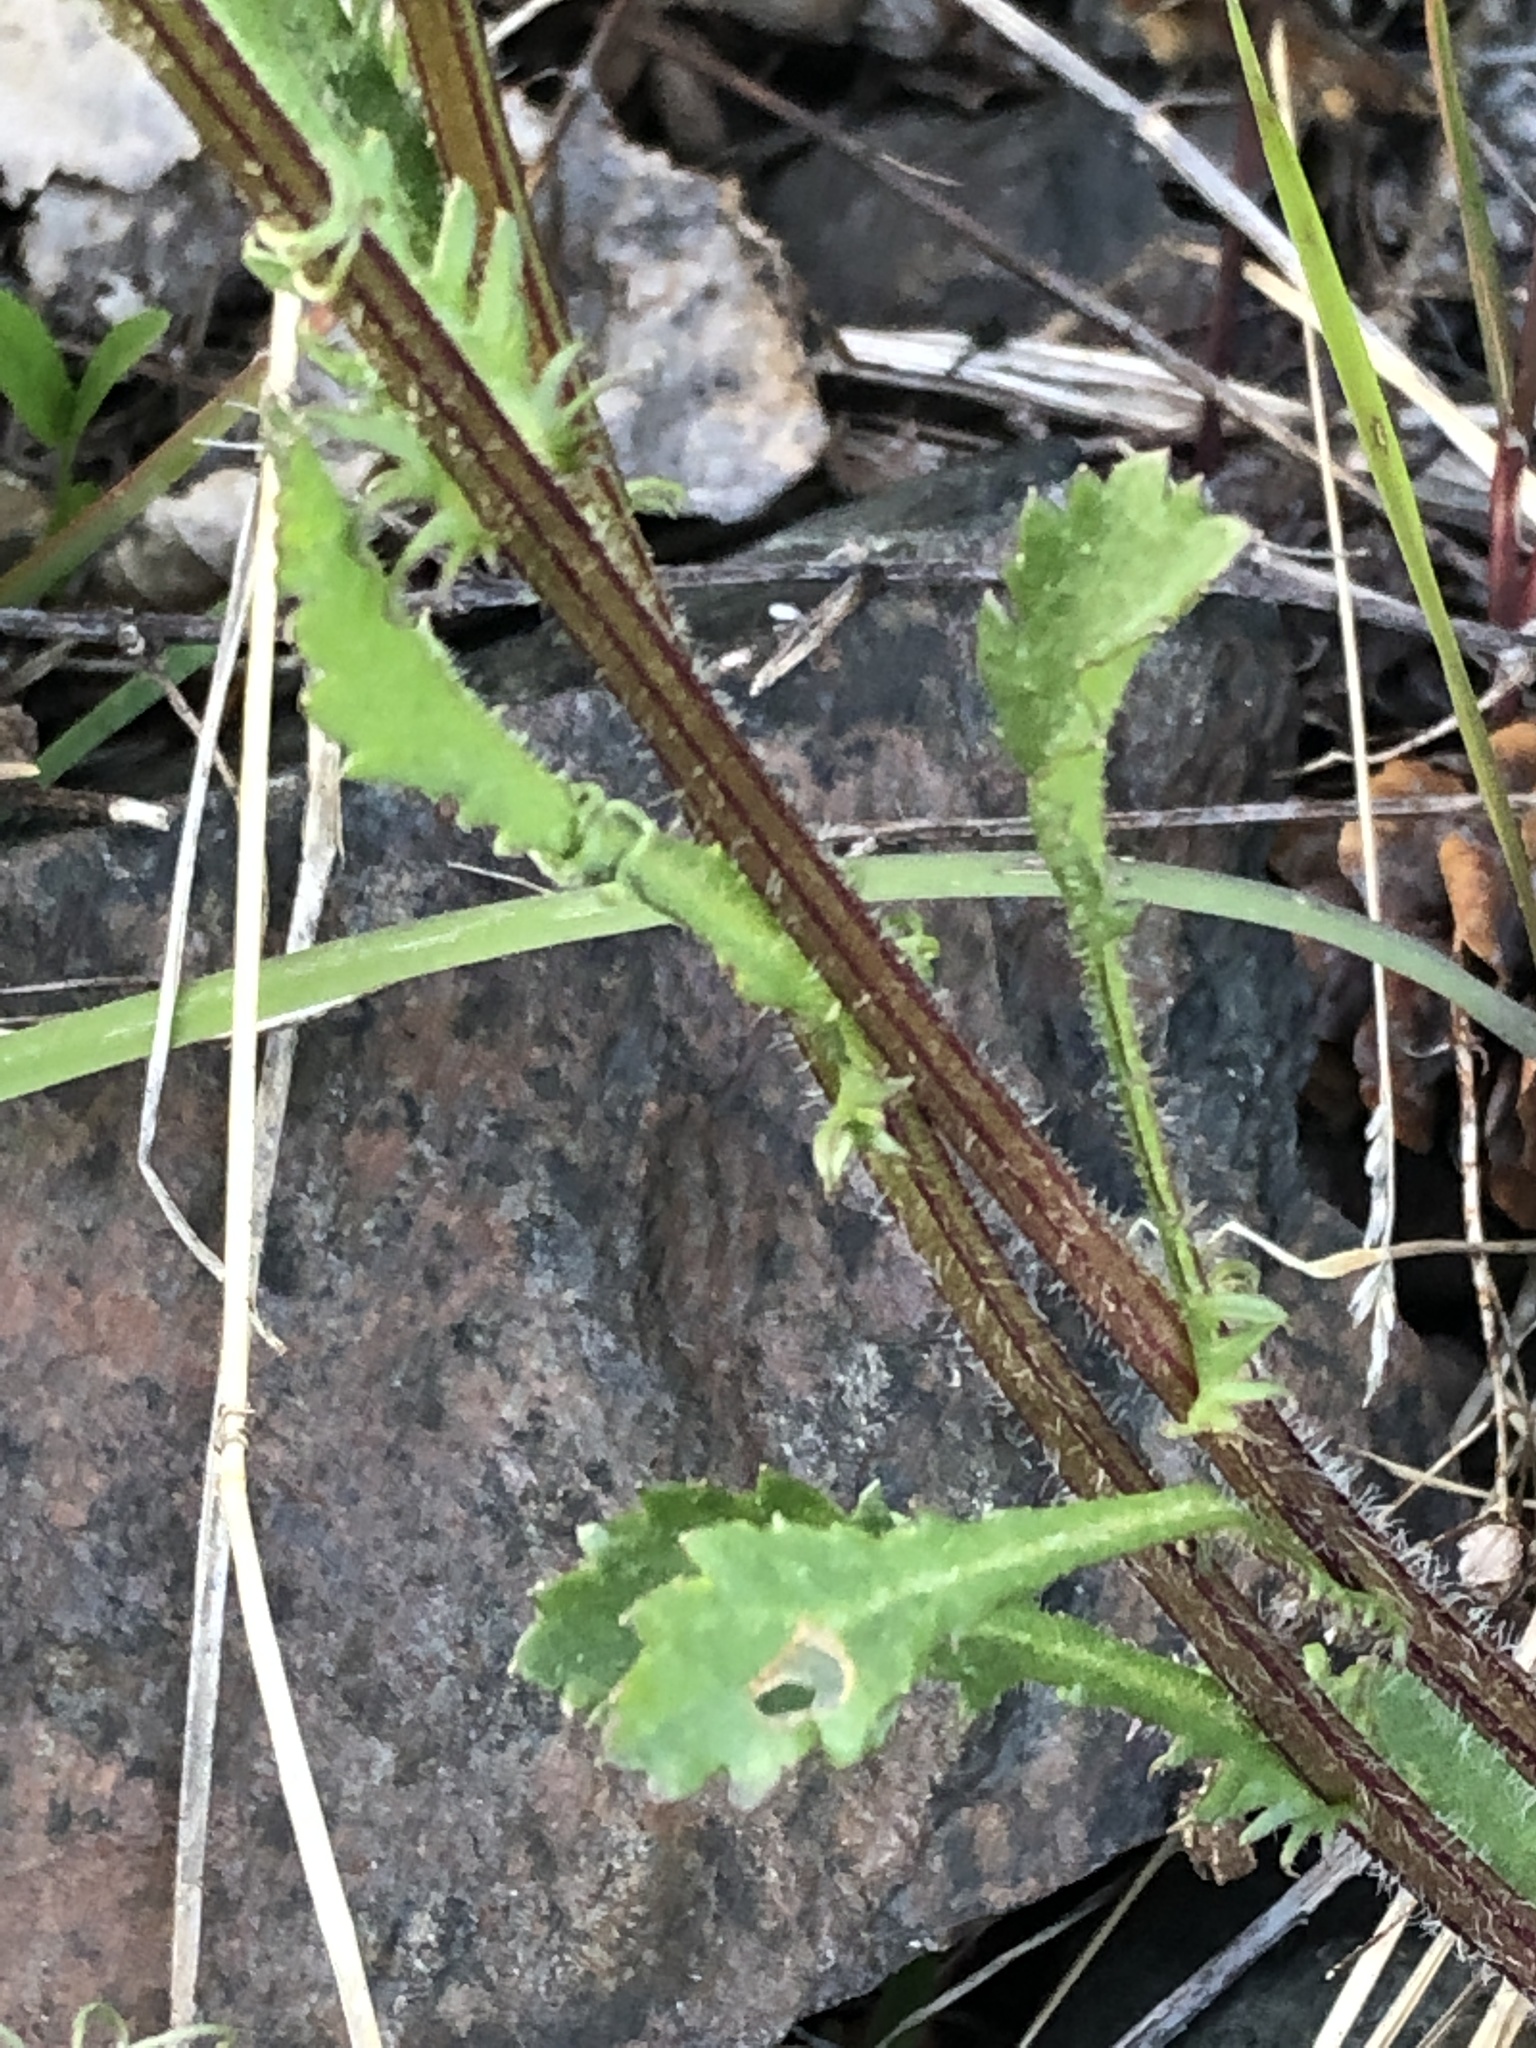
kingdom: Plantae
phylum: Tracheophyta
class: Magnoliopsida
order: Asterales
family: Asteraceae
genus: Leucanthemum
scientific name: Leucanthemum vulgare
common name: Oxeye daisy
